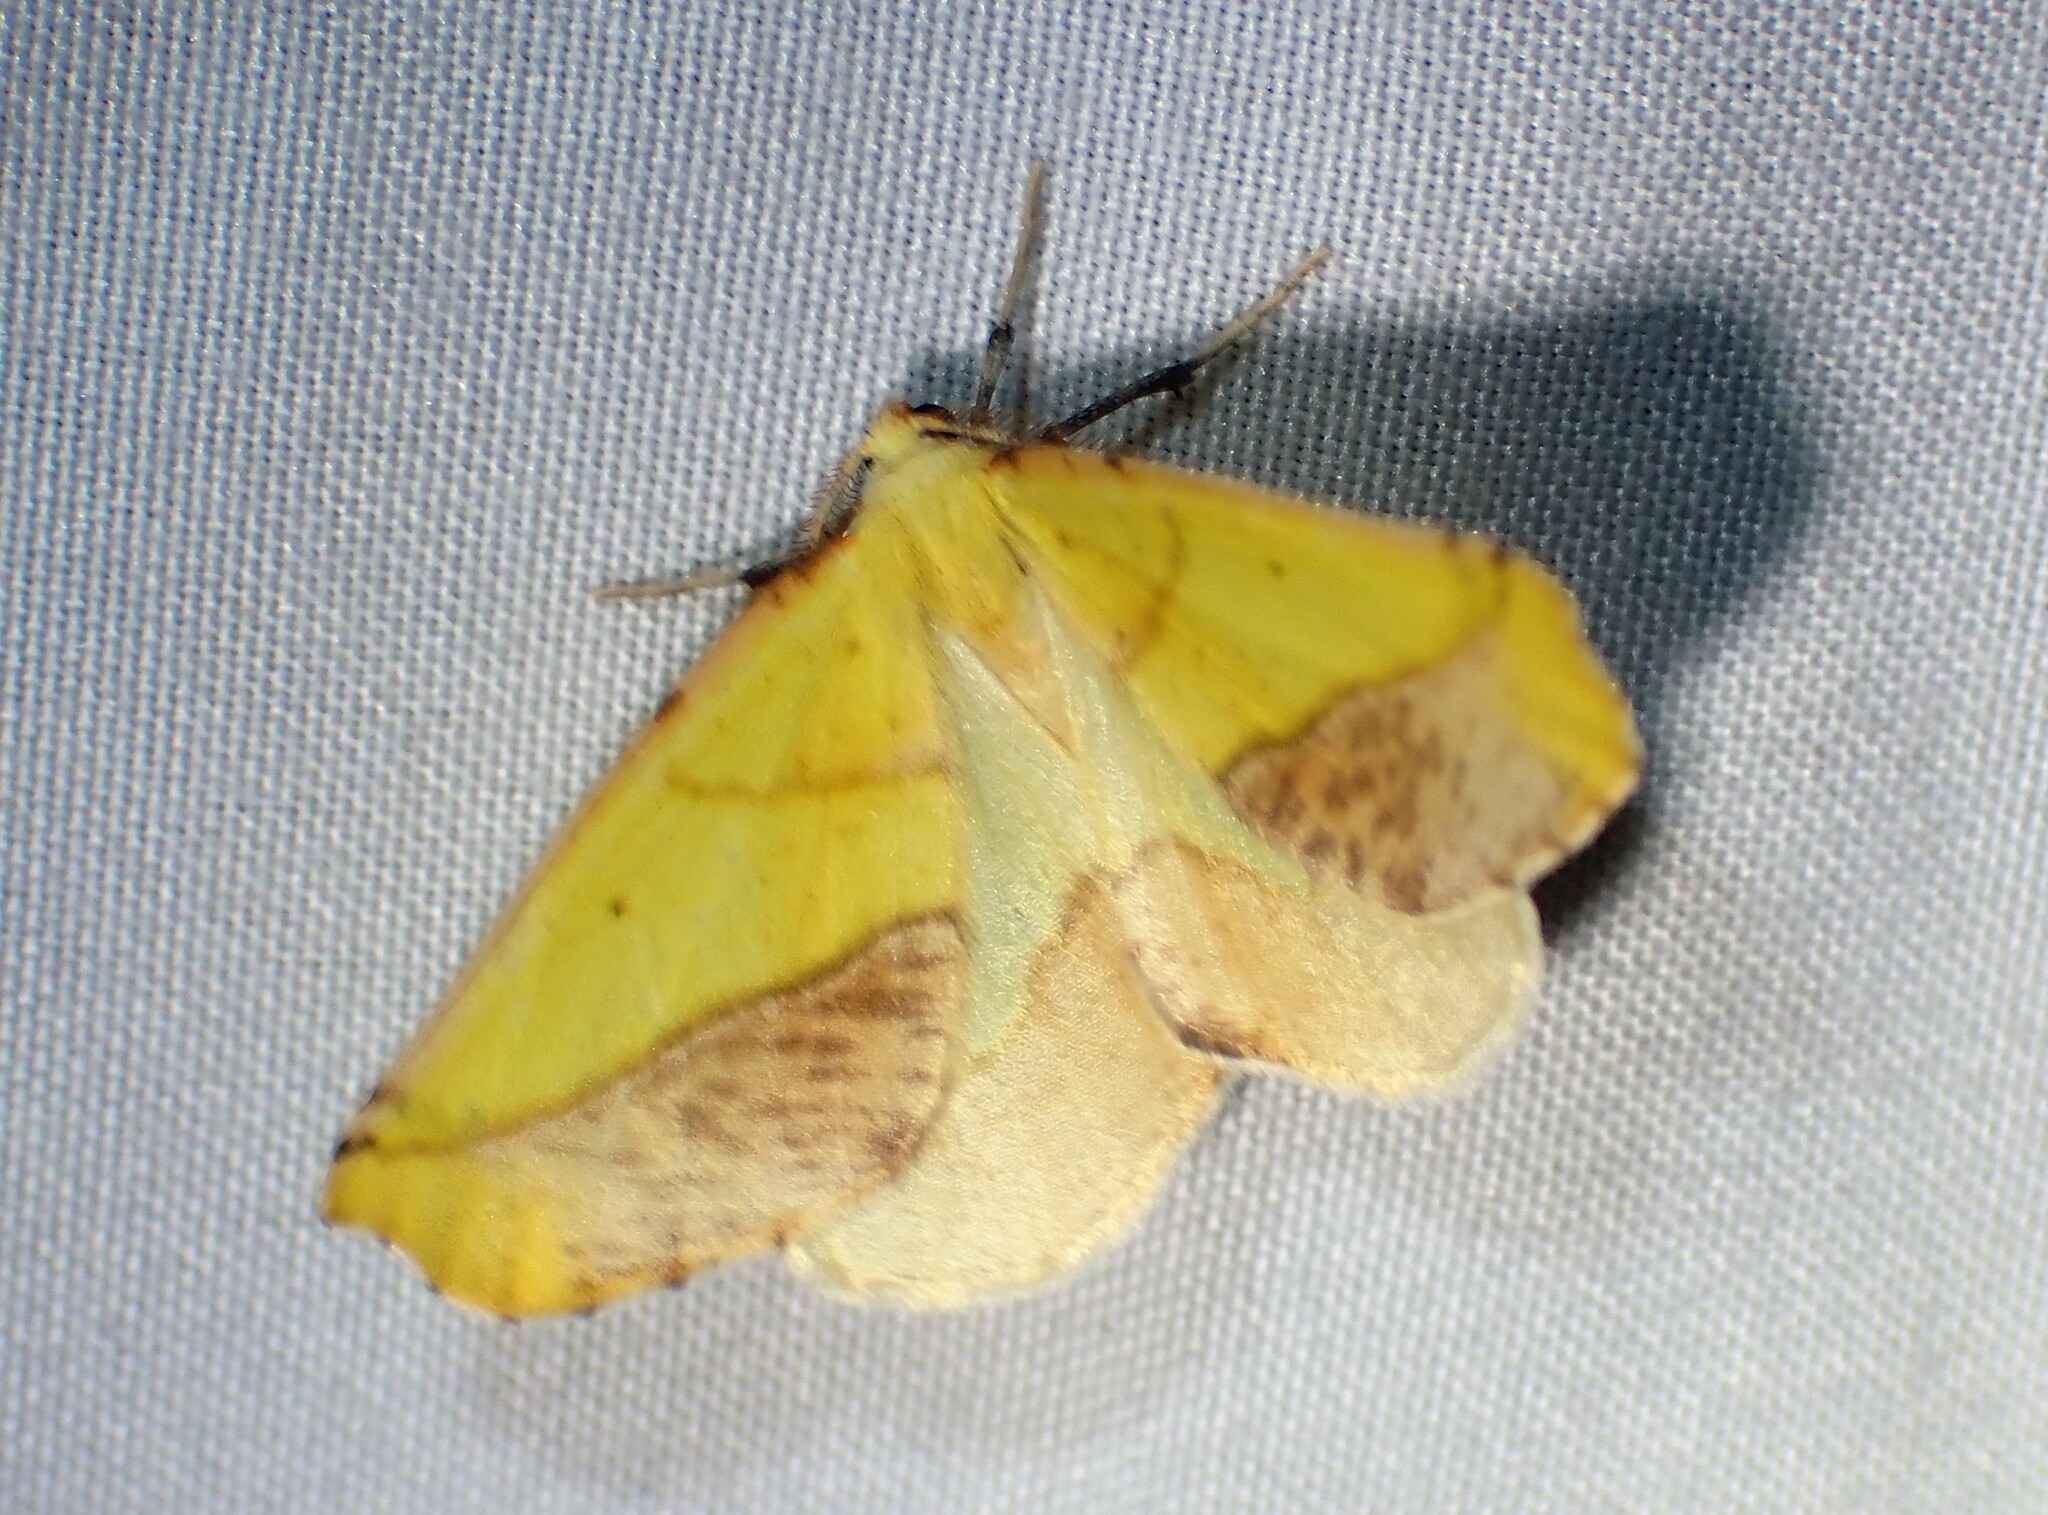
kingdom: Animalia
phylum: Arthropoda
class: Insecta
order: Lepidoptera
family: Geometridae
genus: Sicya
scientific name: Sicya macularia
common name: Sharp-lined yellow
